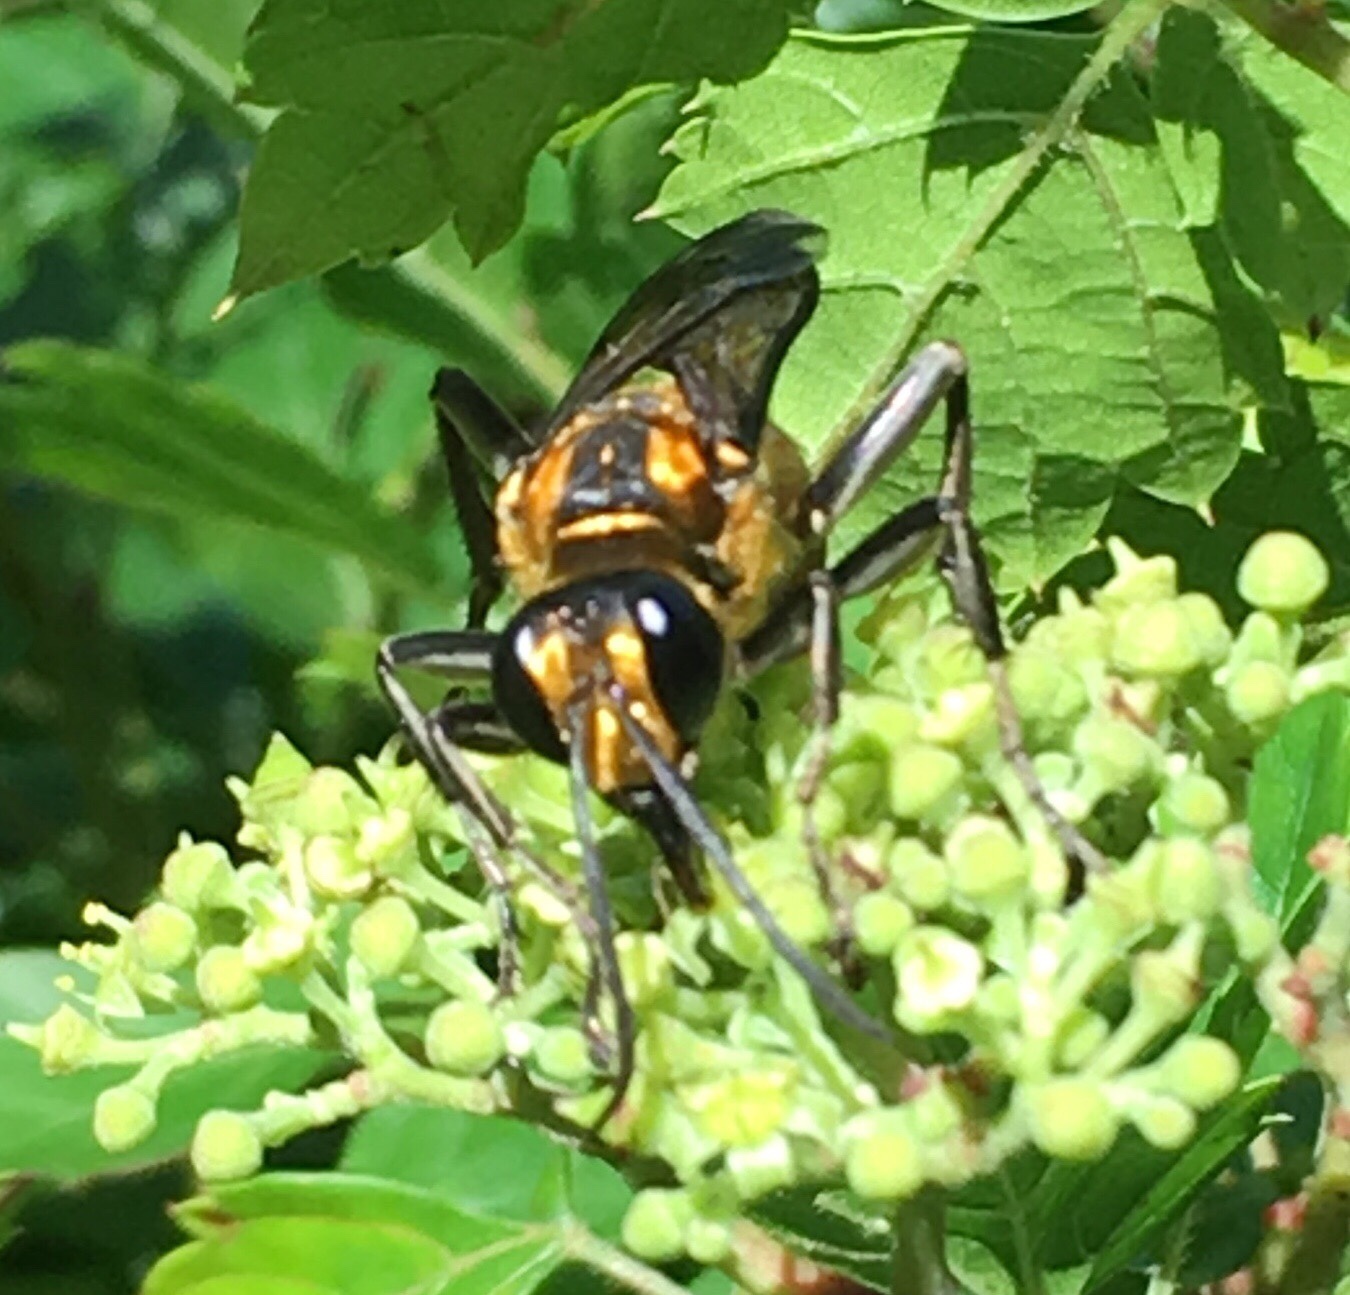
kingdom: Animalia
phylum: Arthropoda
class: Insecta
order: Hymenoptera
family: Sphecidae
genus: Sphex
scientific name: Sphex habenus
